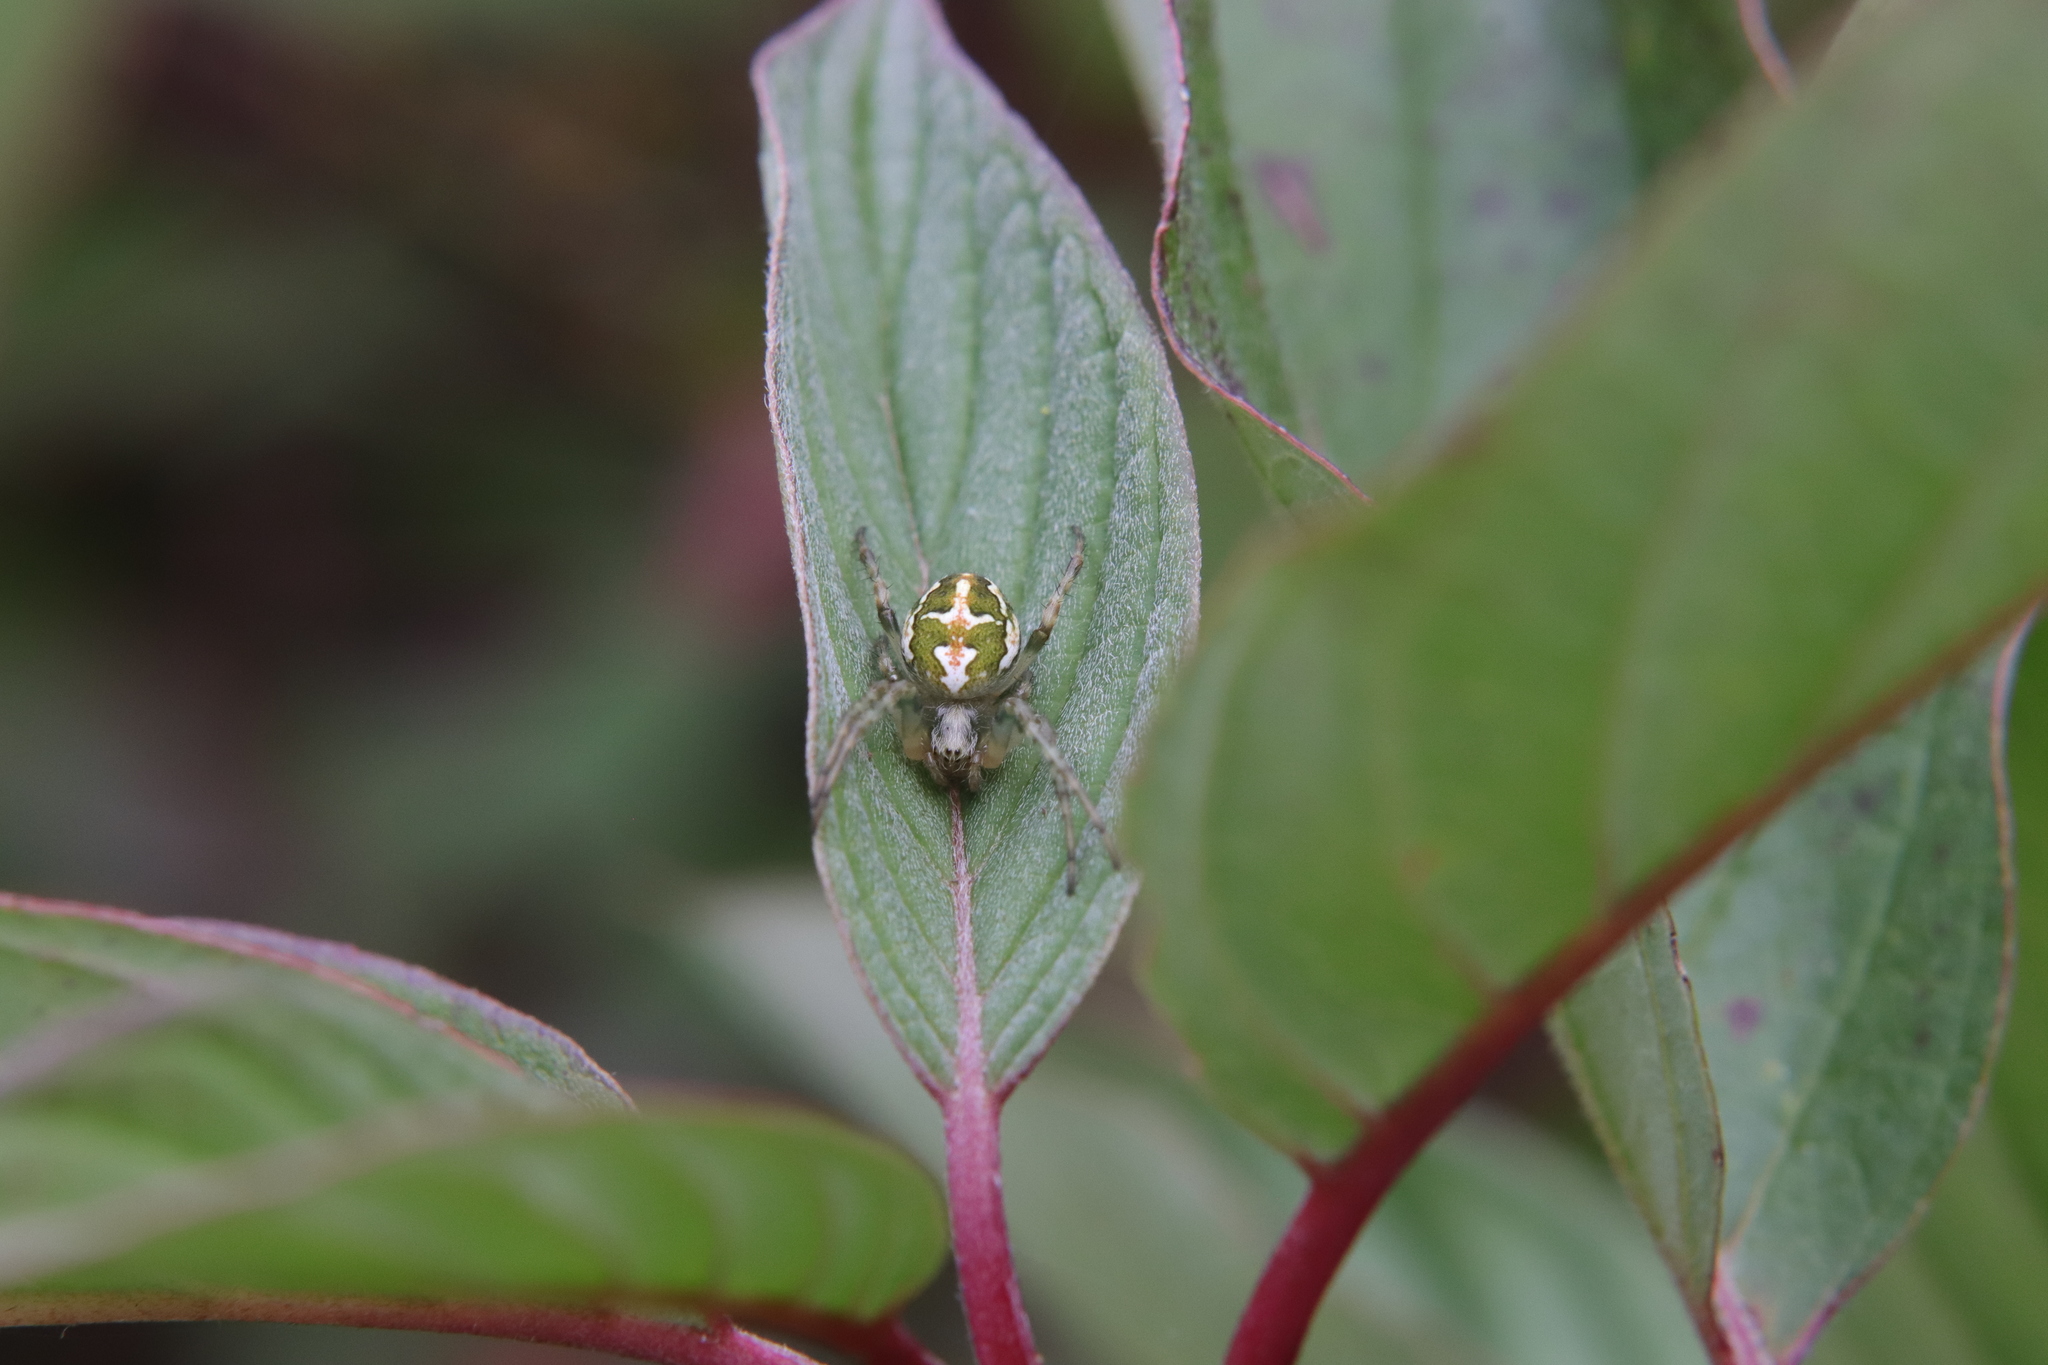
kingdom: Animalia
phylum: Arthropoda
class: Arachnida
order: Araneae
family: Araneidae
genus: Colaranea
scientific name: Colaranea verutum
